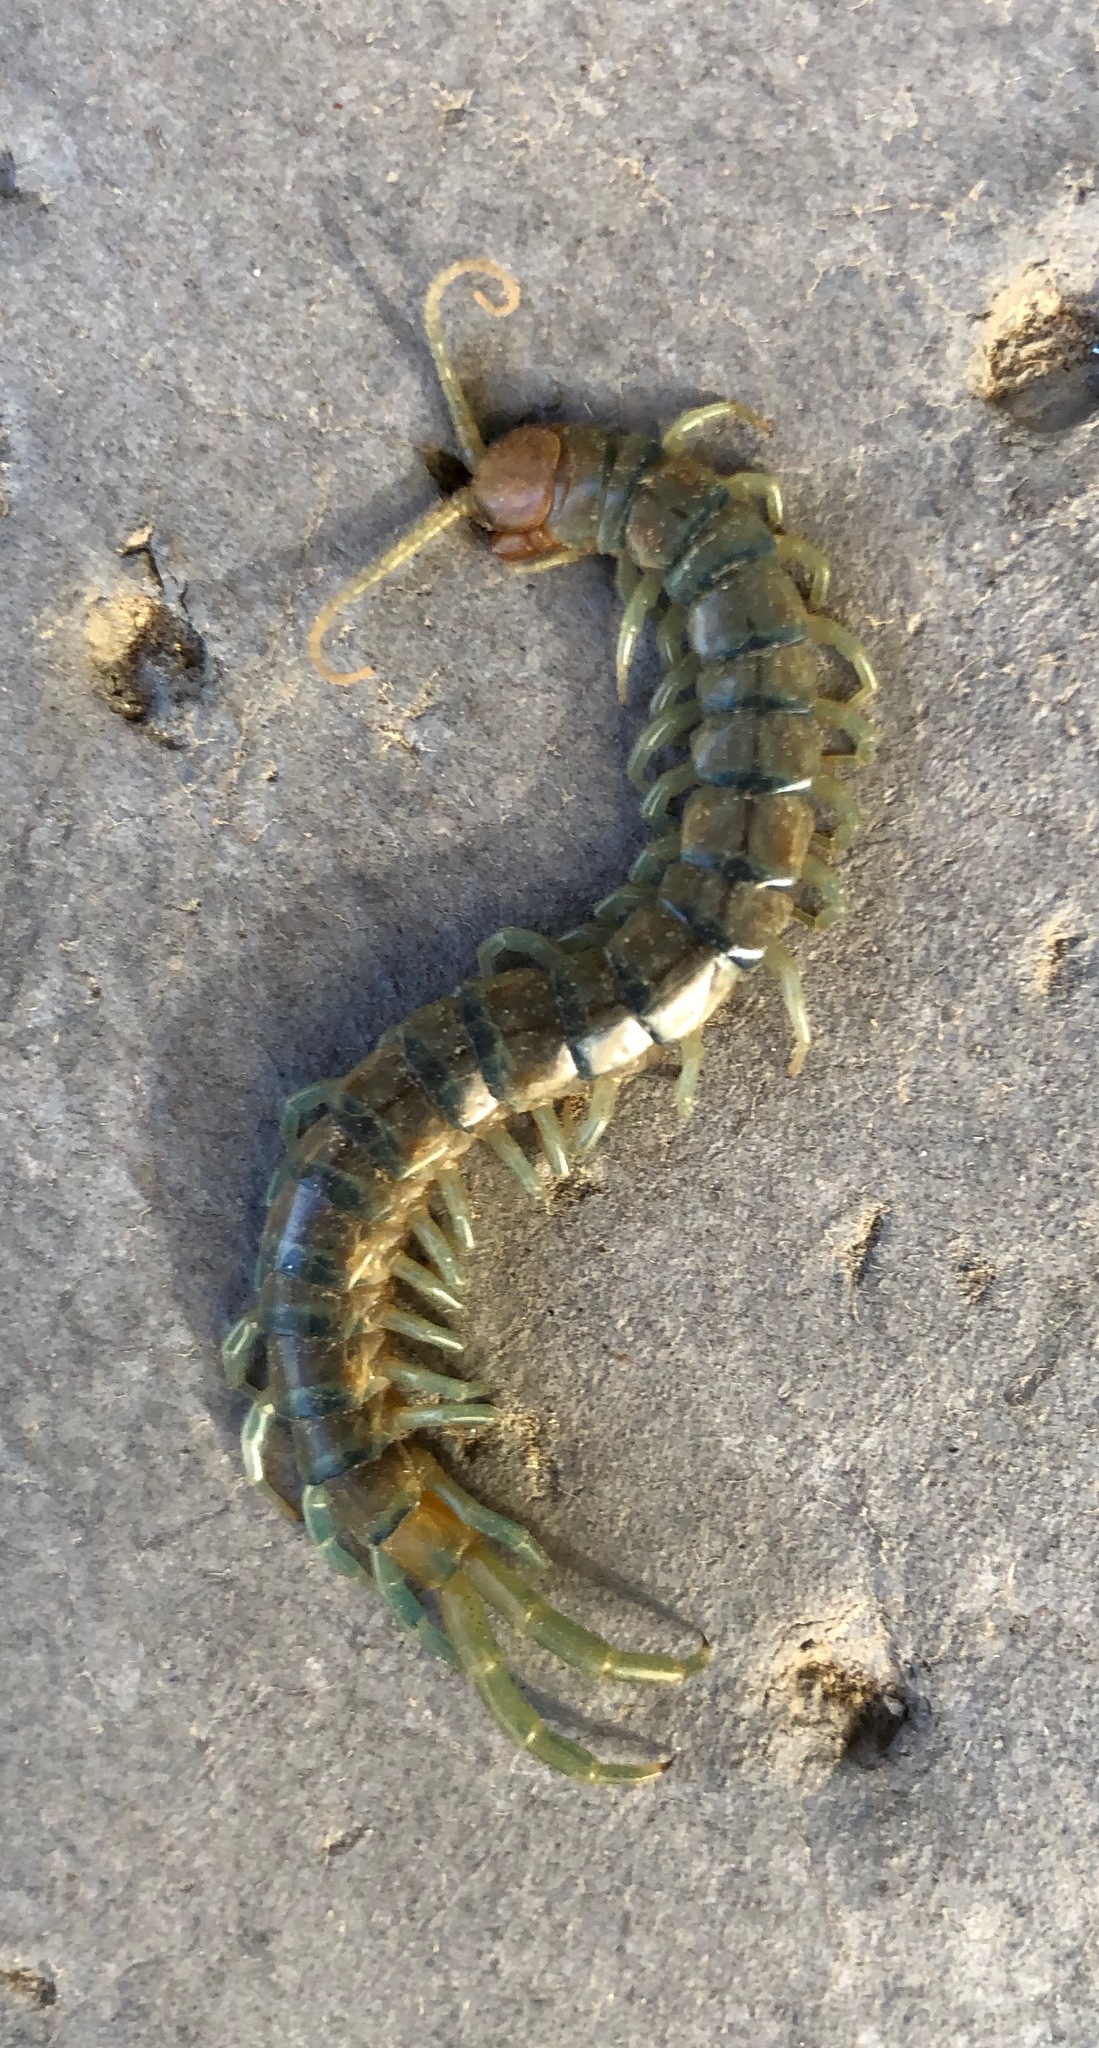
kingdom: Animalia
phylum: Arthropoda
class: Chilopoda
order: Scolopendromorpha
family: Scolopendridae
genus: Scolopendra
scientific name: Scolopendra polymorpha
